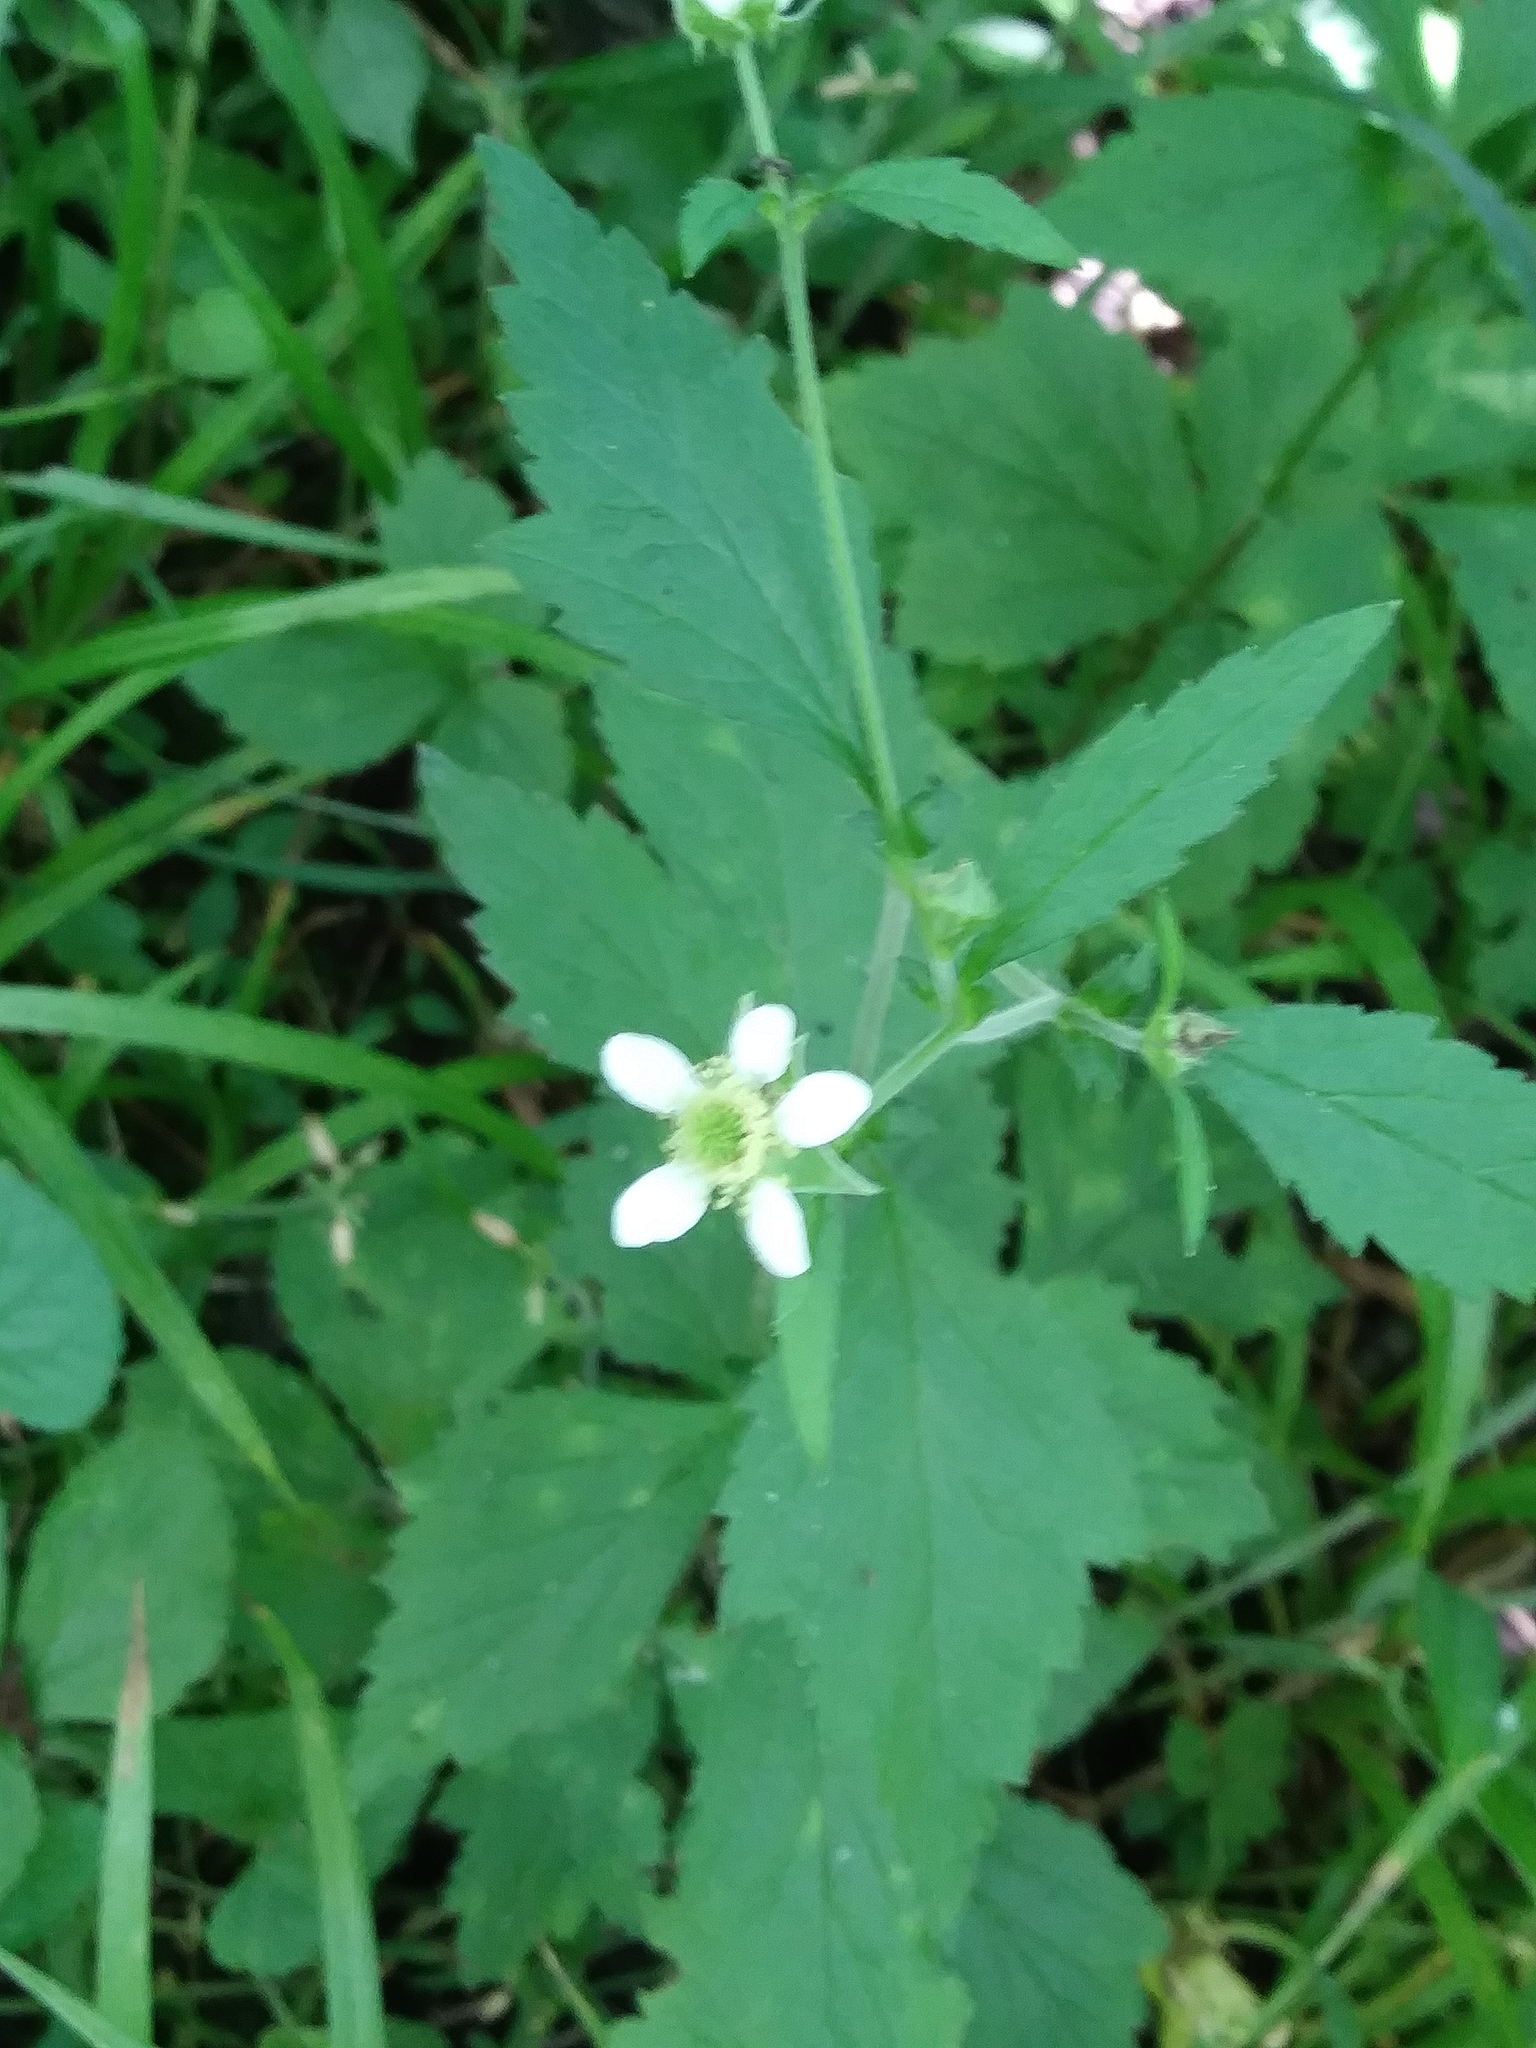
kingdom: Plantae
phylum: Tracheophyta
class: Magnoliopsida
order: Rosales
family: Rosaceae
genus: Geum
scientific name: Geum canadense
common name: White avens
